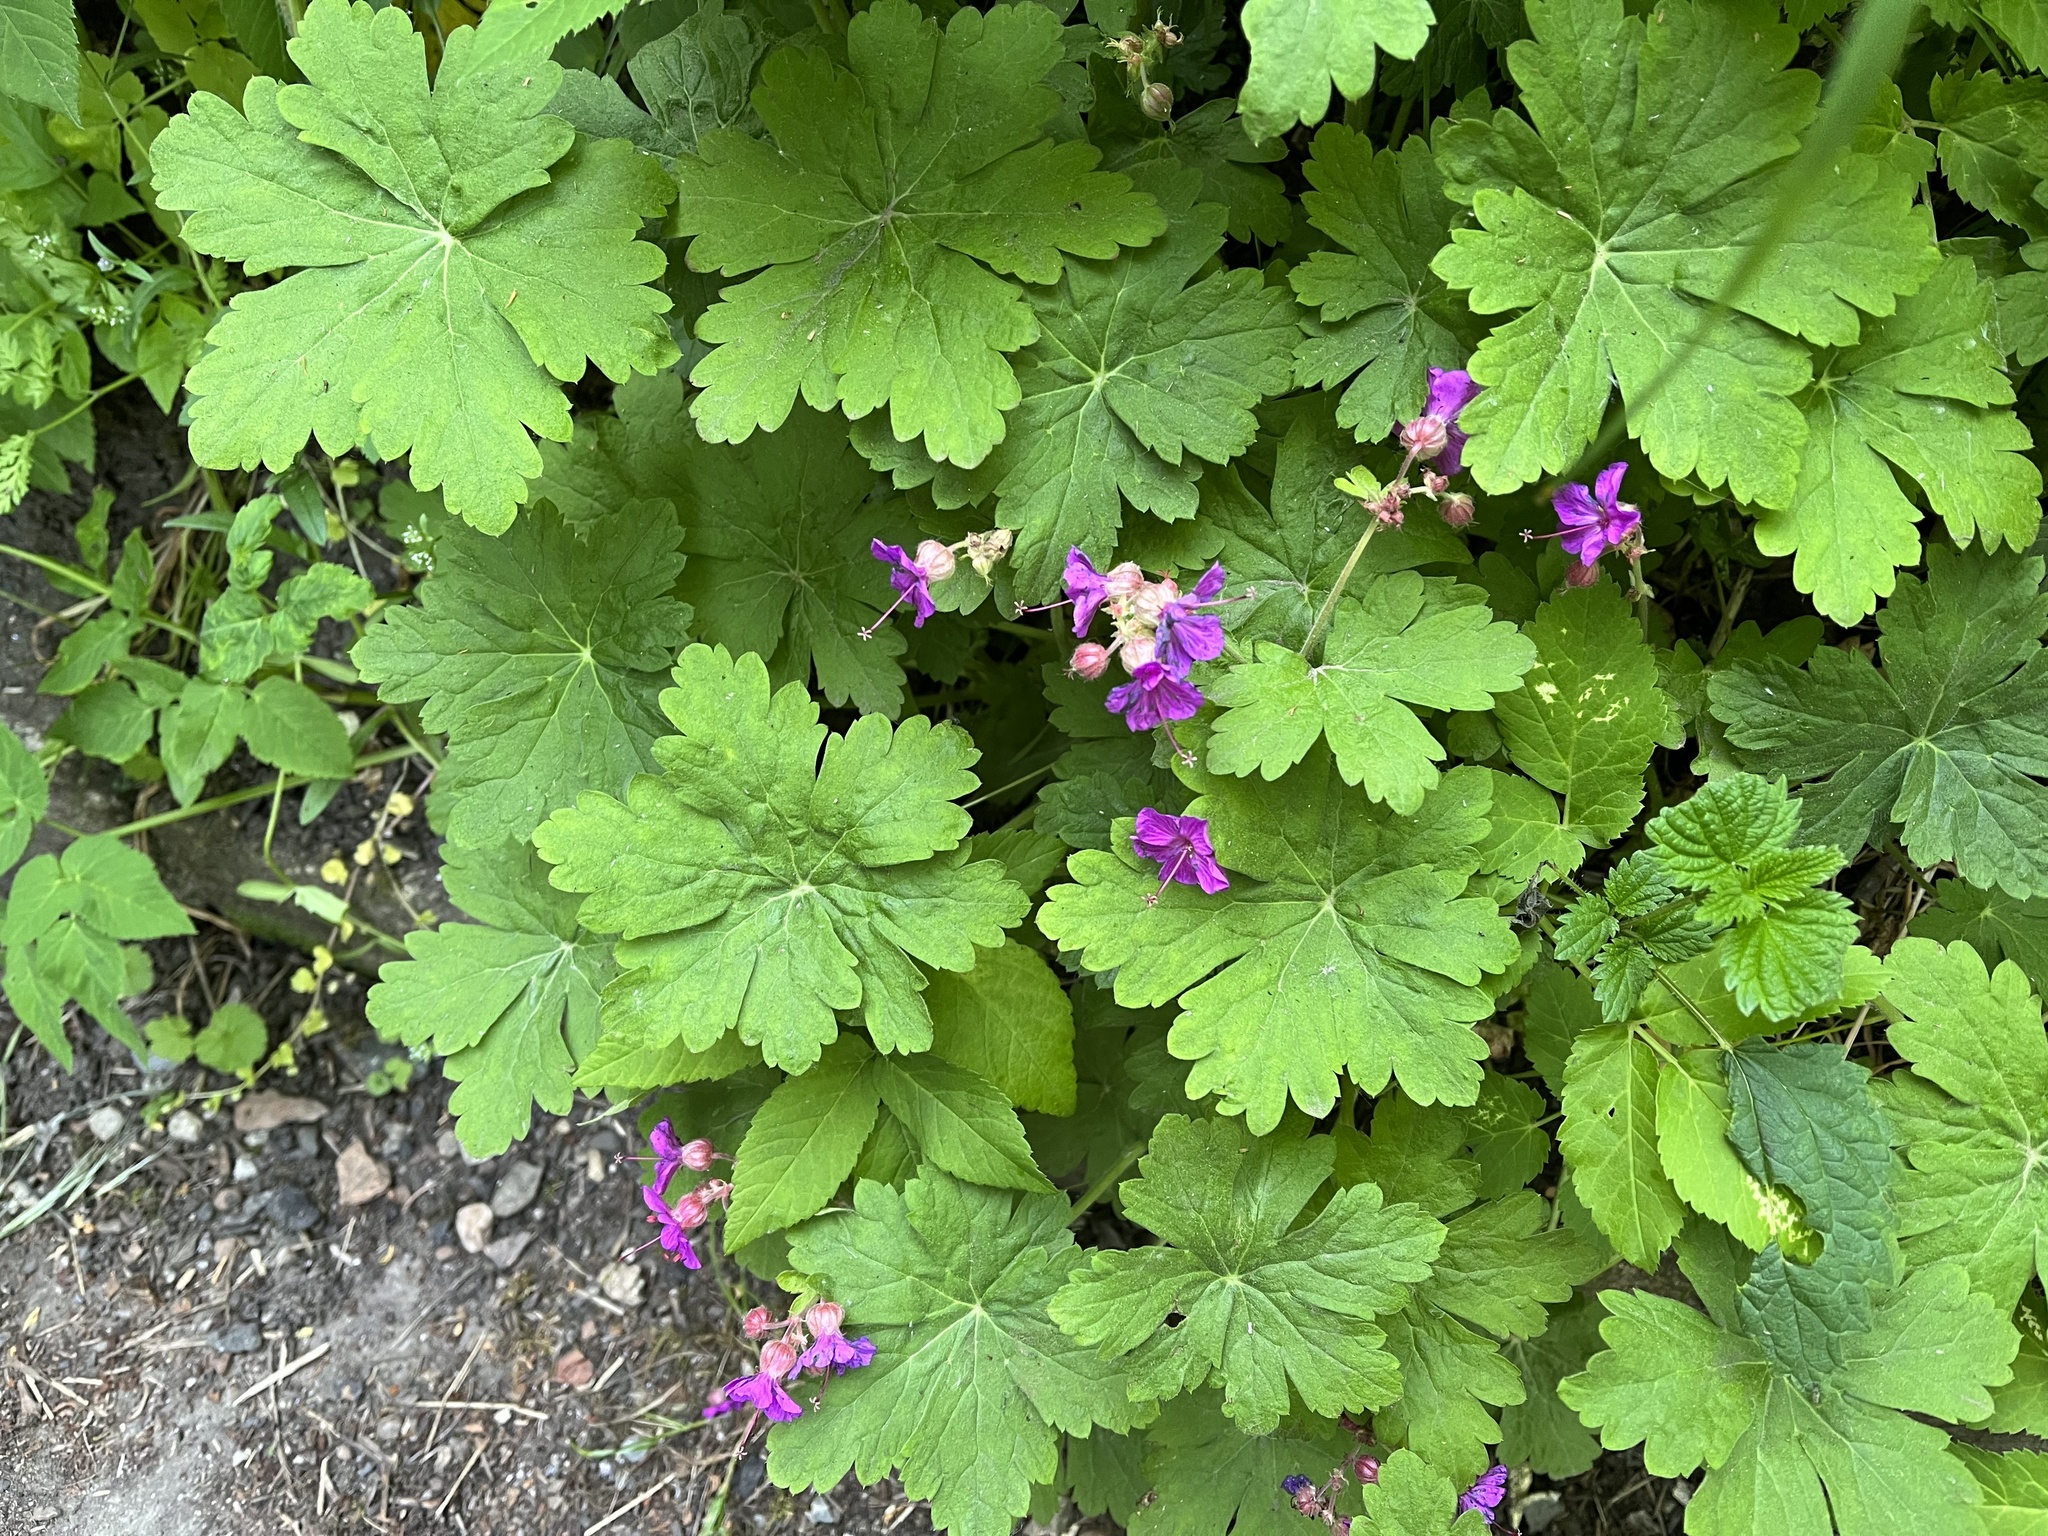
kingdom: Plantae
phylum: Tracheophyta
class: Magnoliopsida
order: Geraniales
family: Geraniaceae
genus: Geranium
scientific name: Geranium macrorrhizum
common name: Rock crane's-bill
